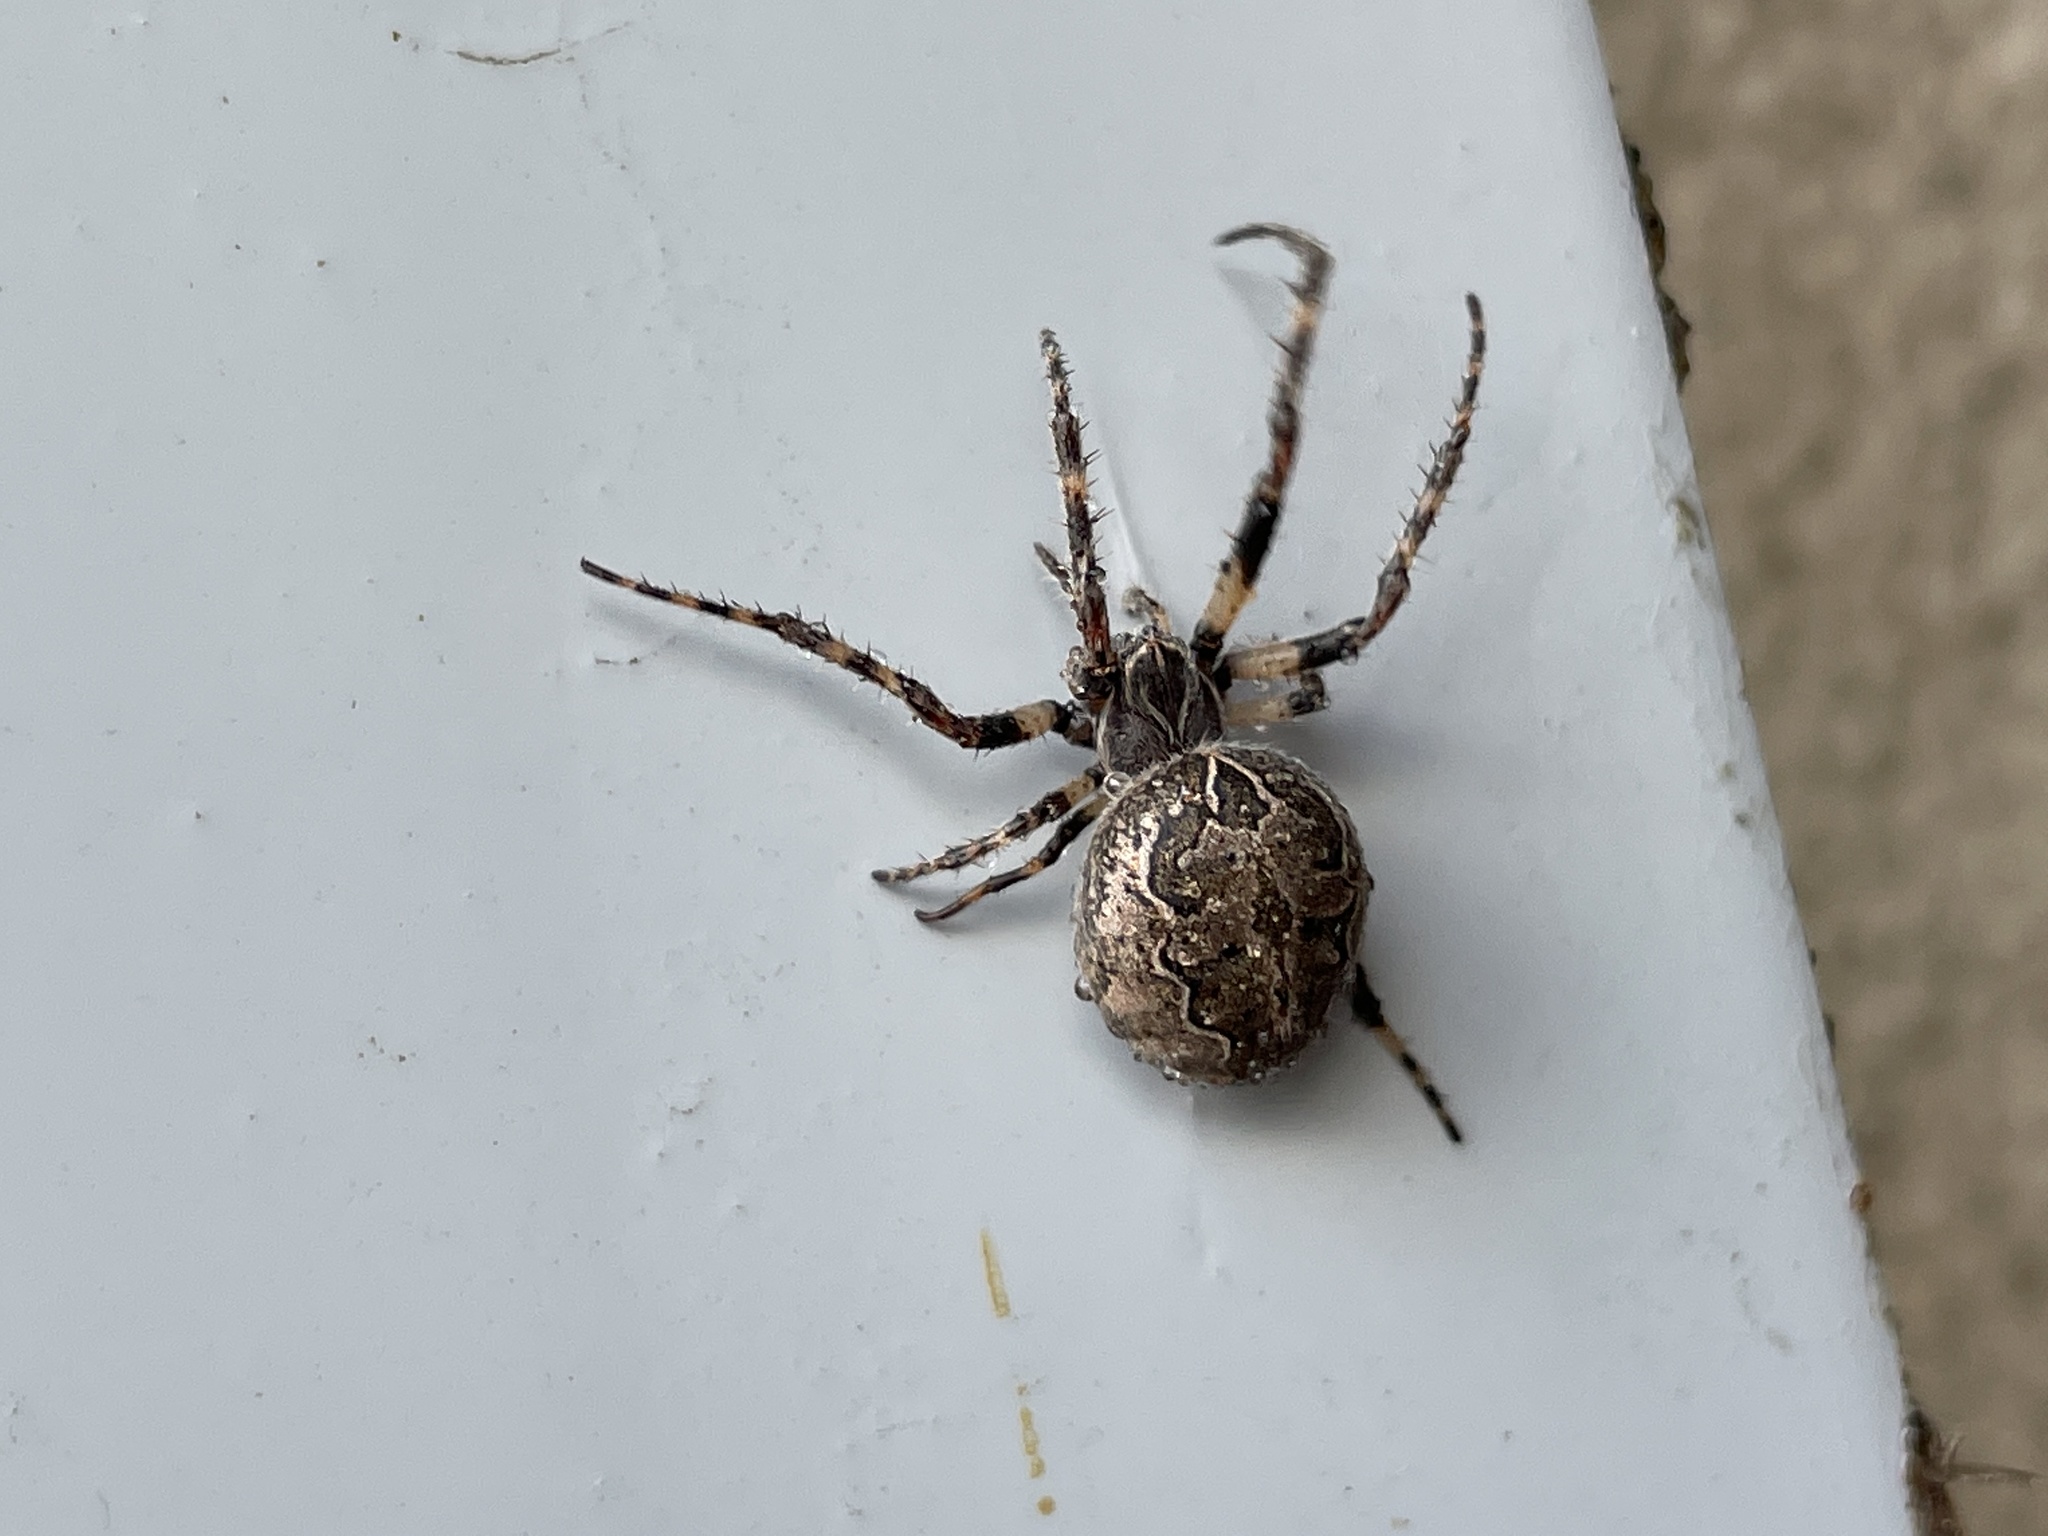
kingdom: Animalia
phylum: Arthropoda
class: Arachnida
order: Araneae
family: Araneidae
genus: Larinioides
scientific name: Larinioides sclopetarius
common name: Bridge orbweaver
